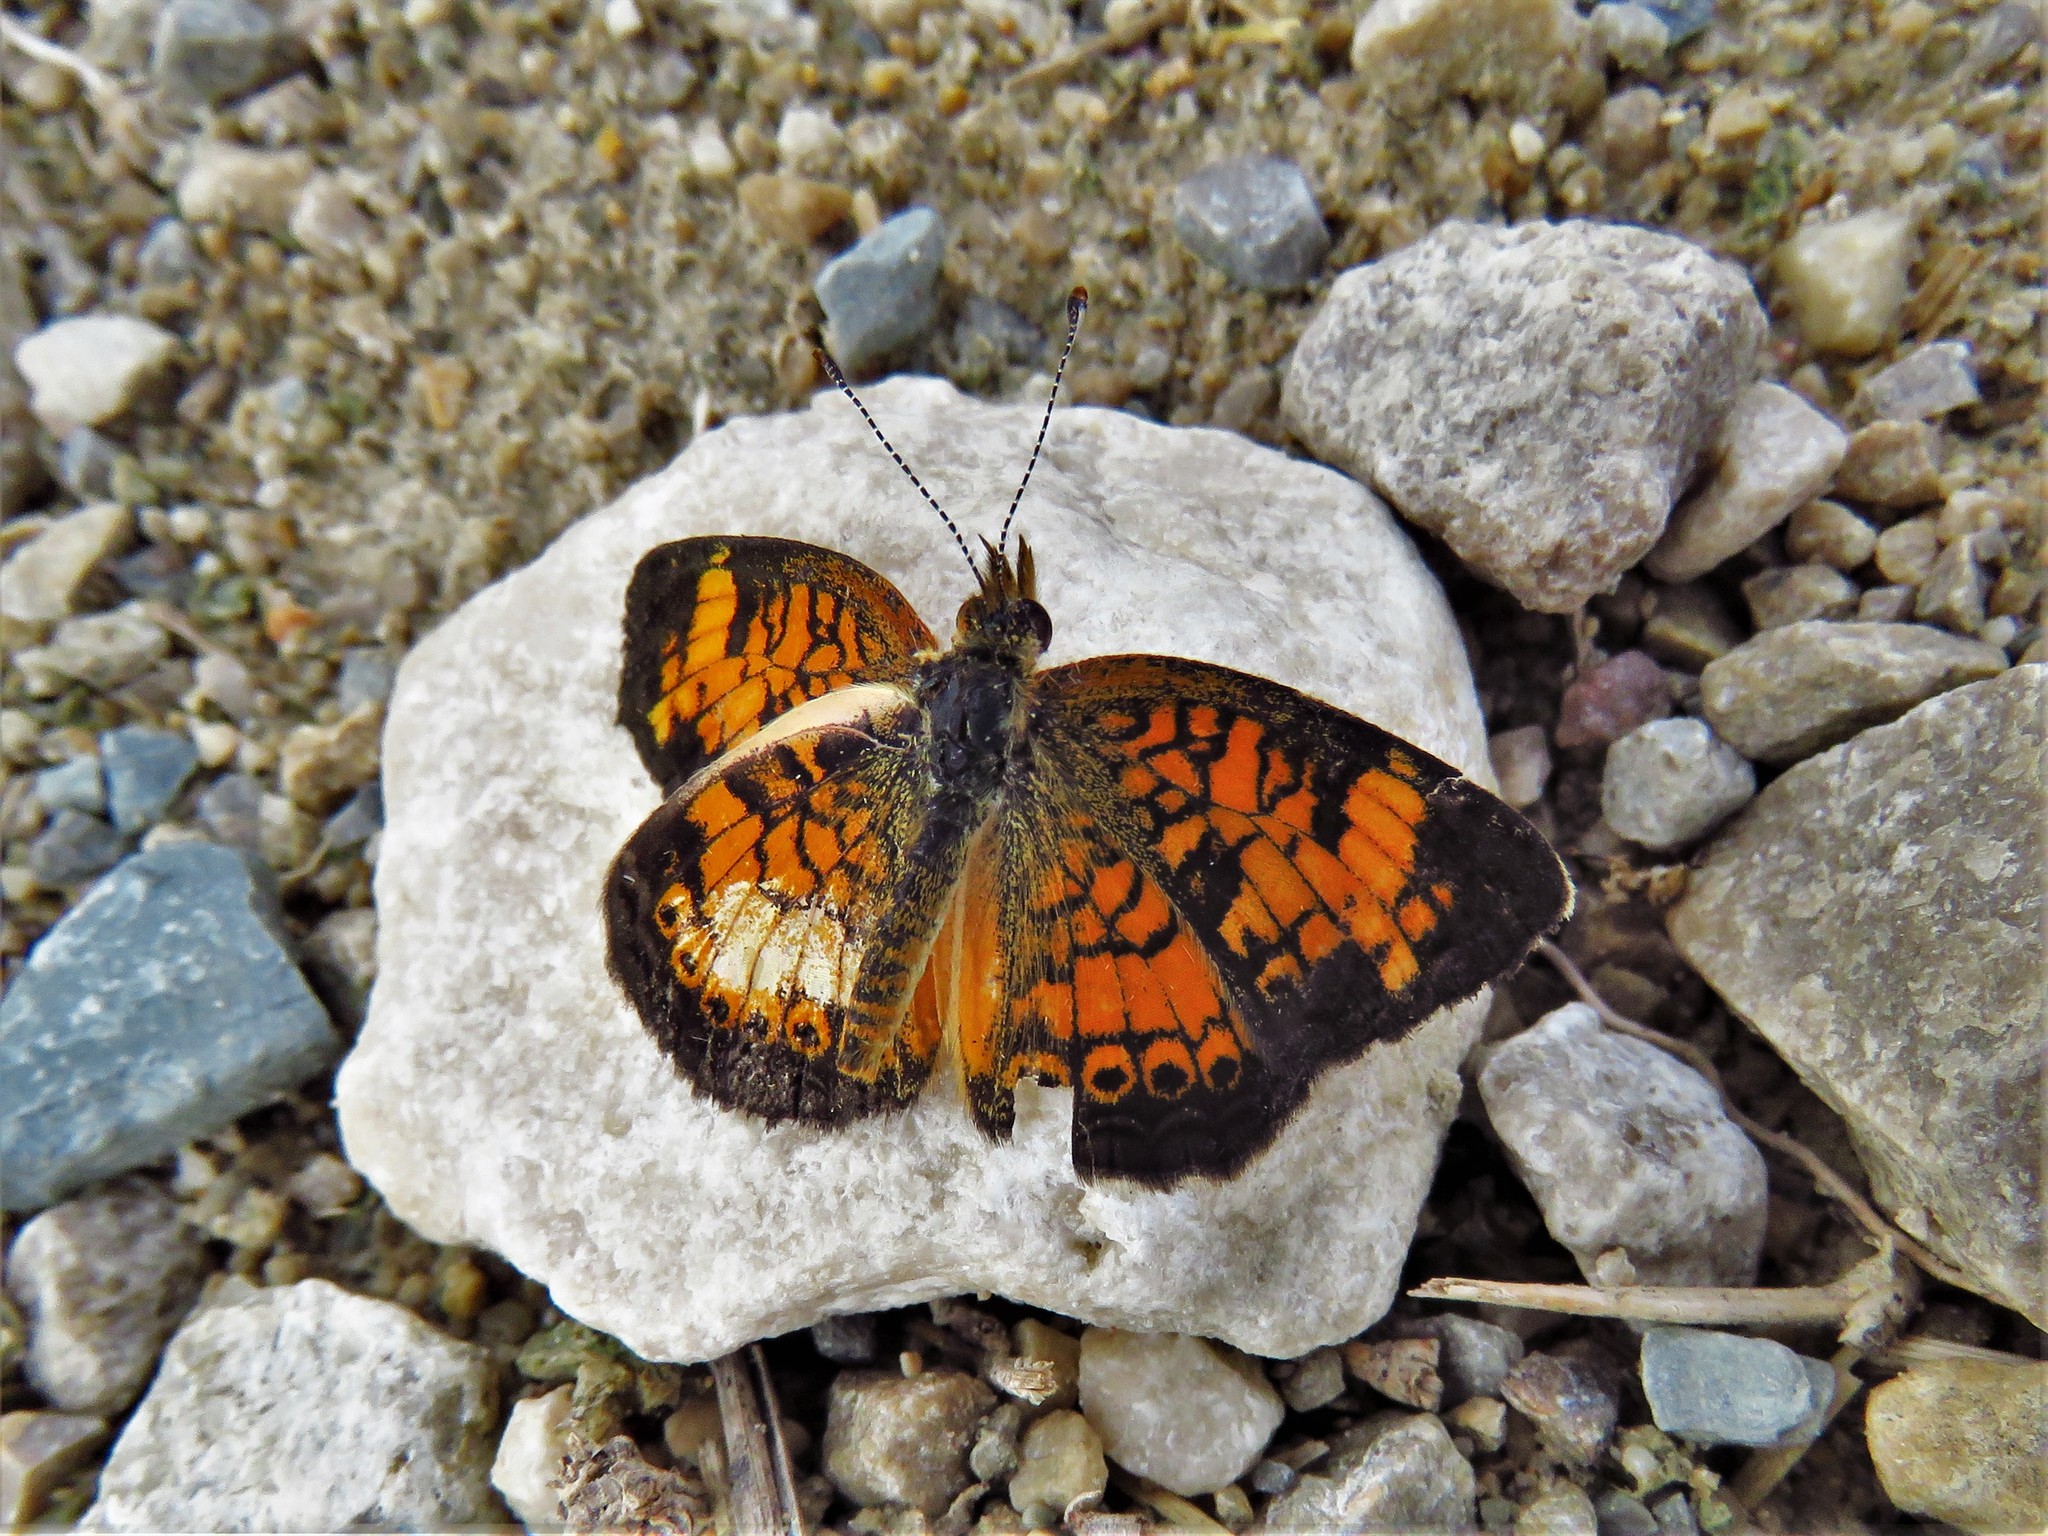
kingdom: Animalia
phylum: Arthropoda
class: Insecta
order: Lepidoptera
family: Nymphalidae
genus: Phyciodes
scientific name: Phyciodes tharos
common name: Pearl crescent
